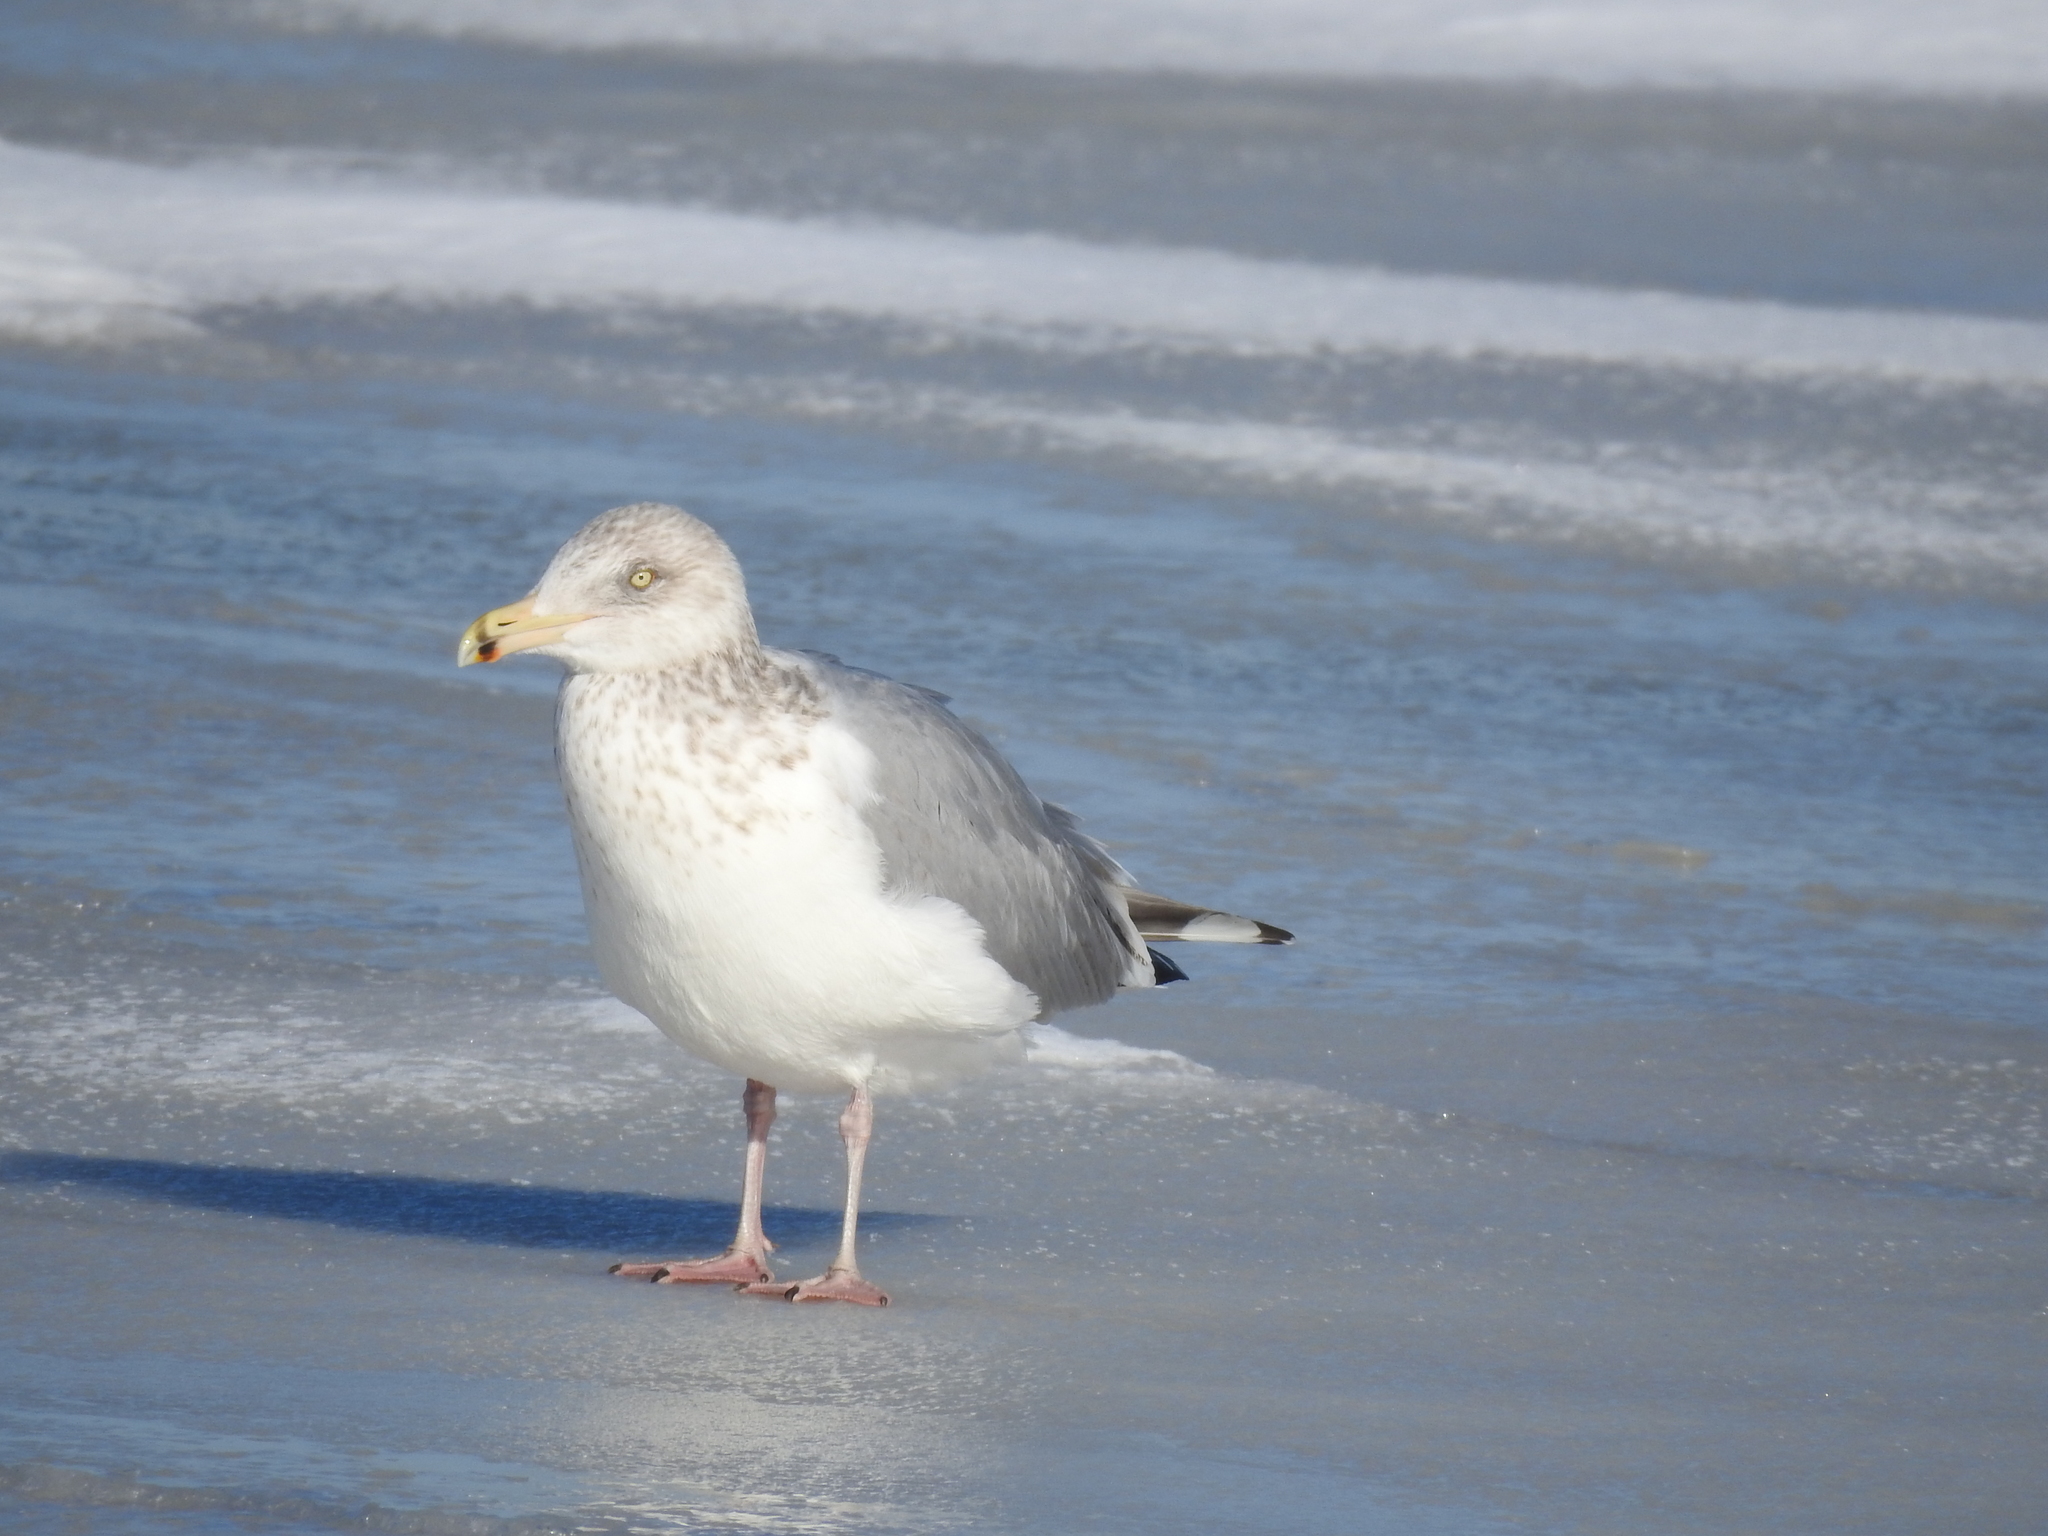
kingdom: Animalia
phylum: Chordata
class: Aves
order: Charadriiformes
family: Laridae
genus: Larus
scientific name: Larus argentatus
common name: Herring gull
